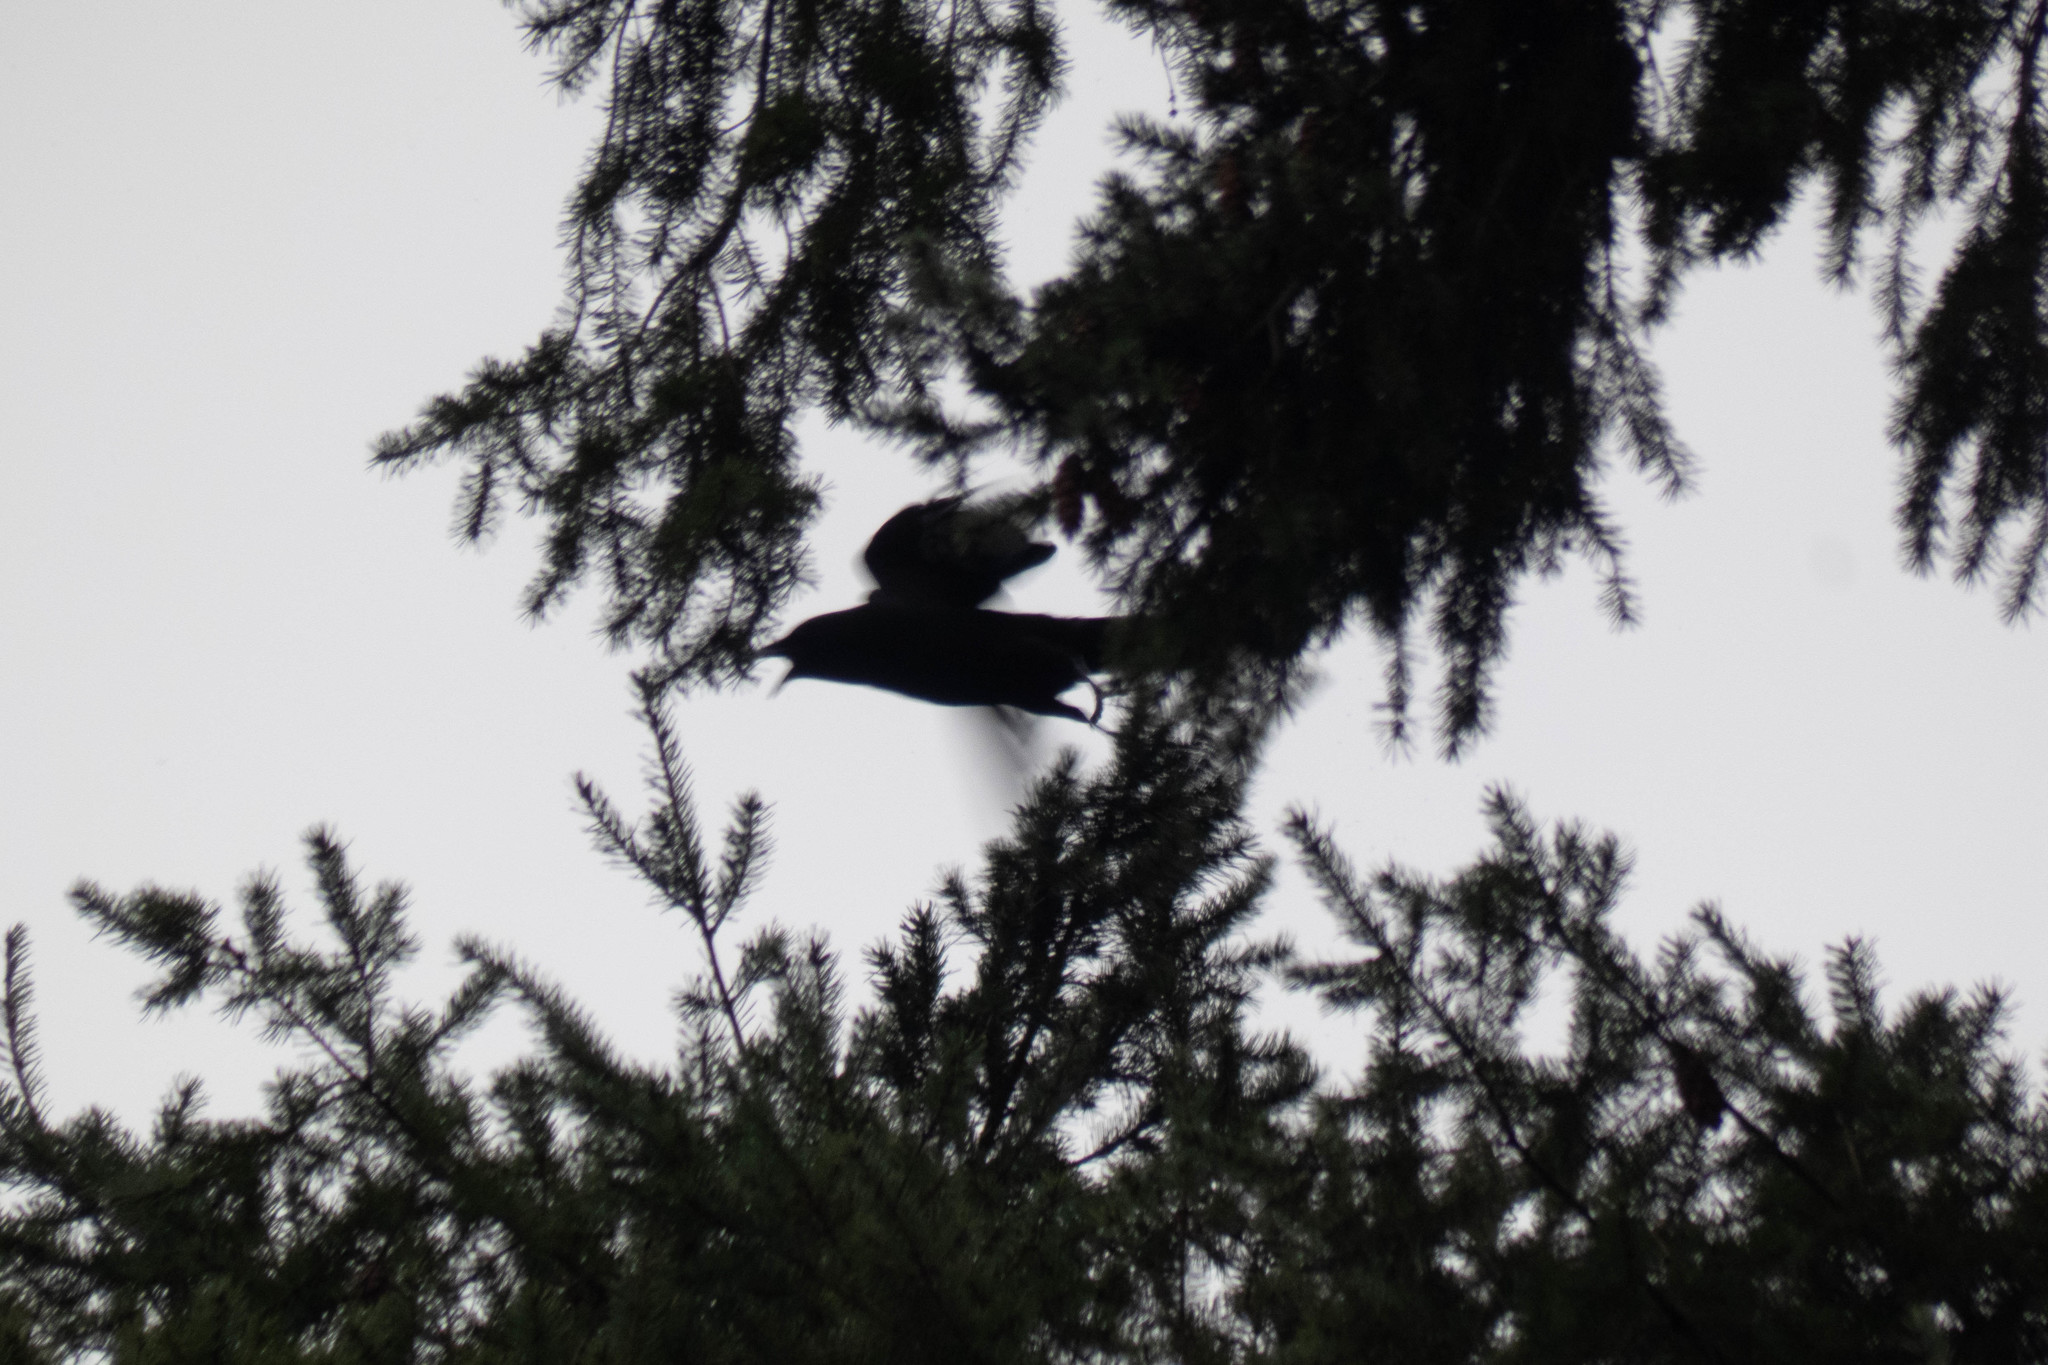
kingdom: Animalia
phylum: Chordata
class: Aves
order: Passeriformes
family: Corvidae
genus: Corvus
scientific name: Corvus brachyrhynchos
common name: American crow
